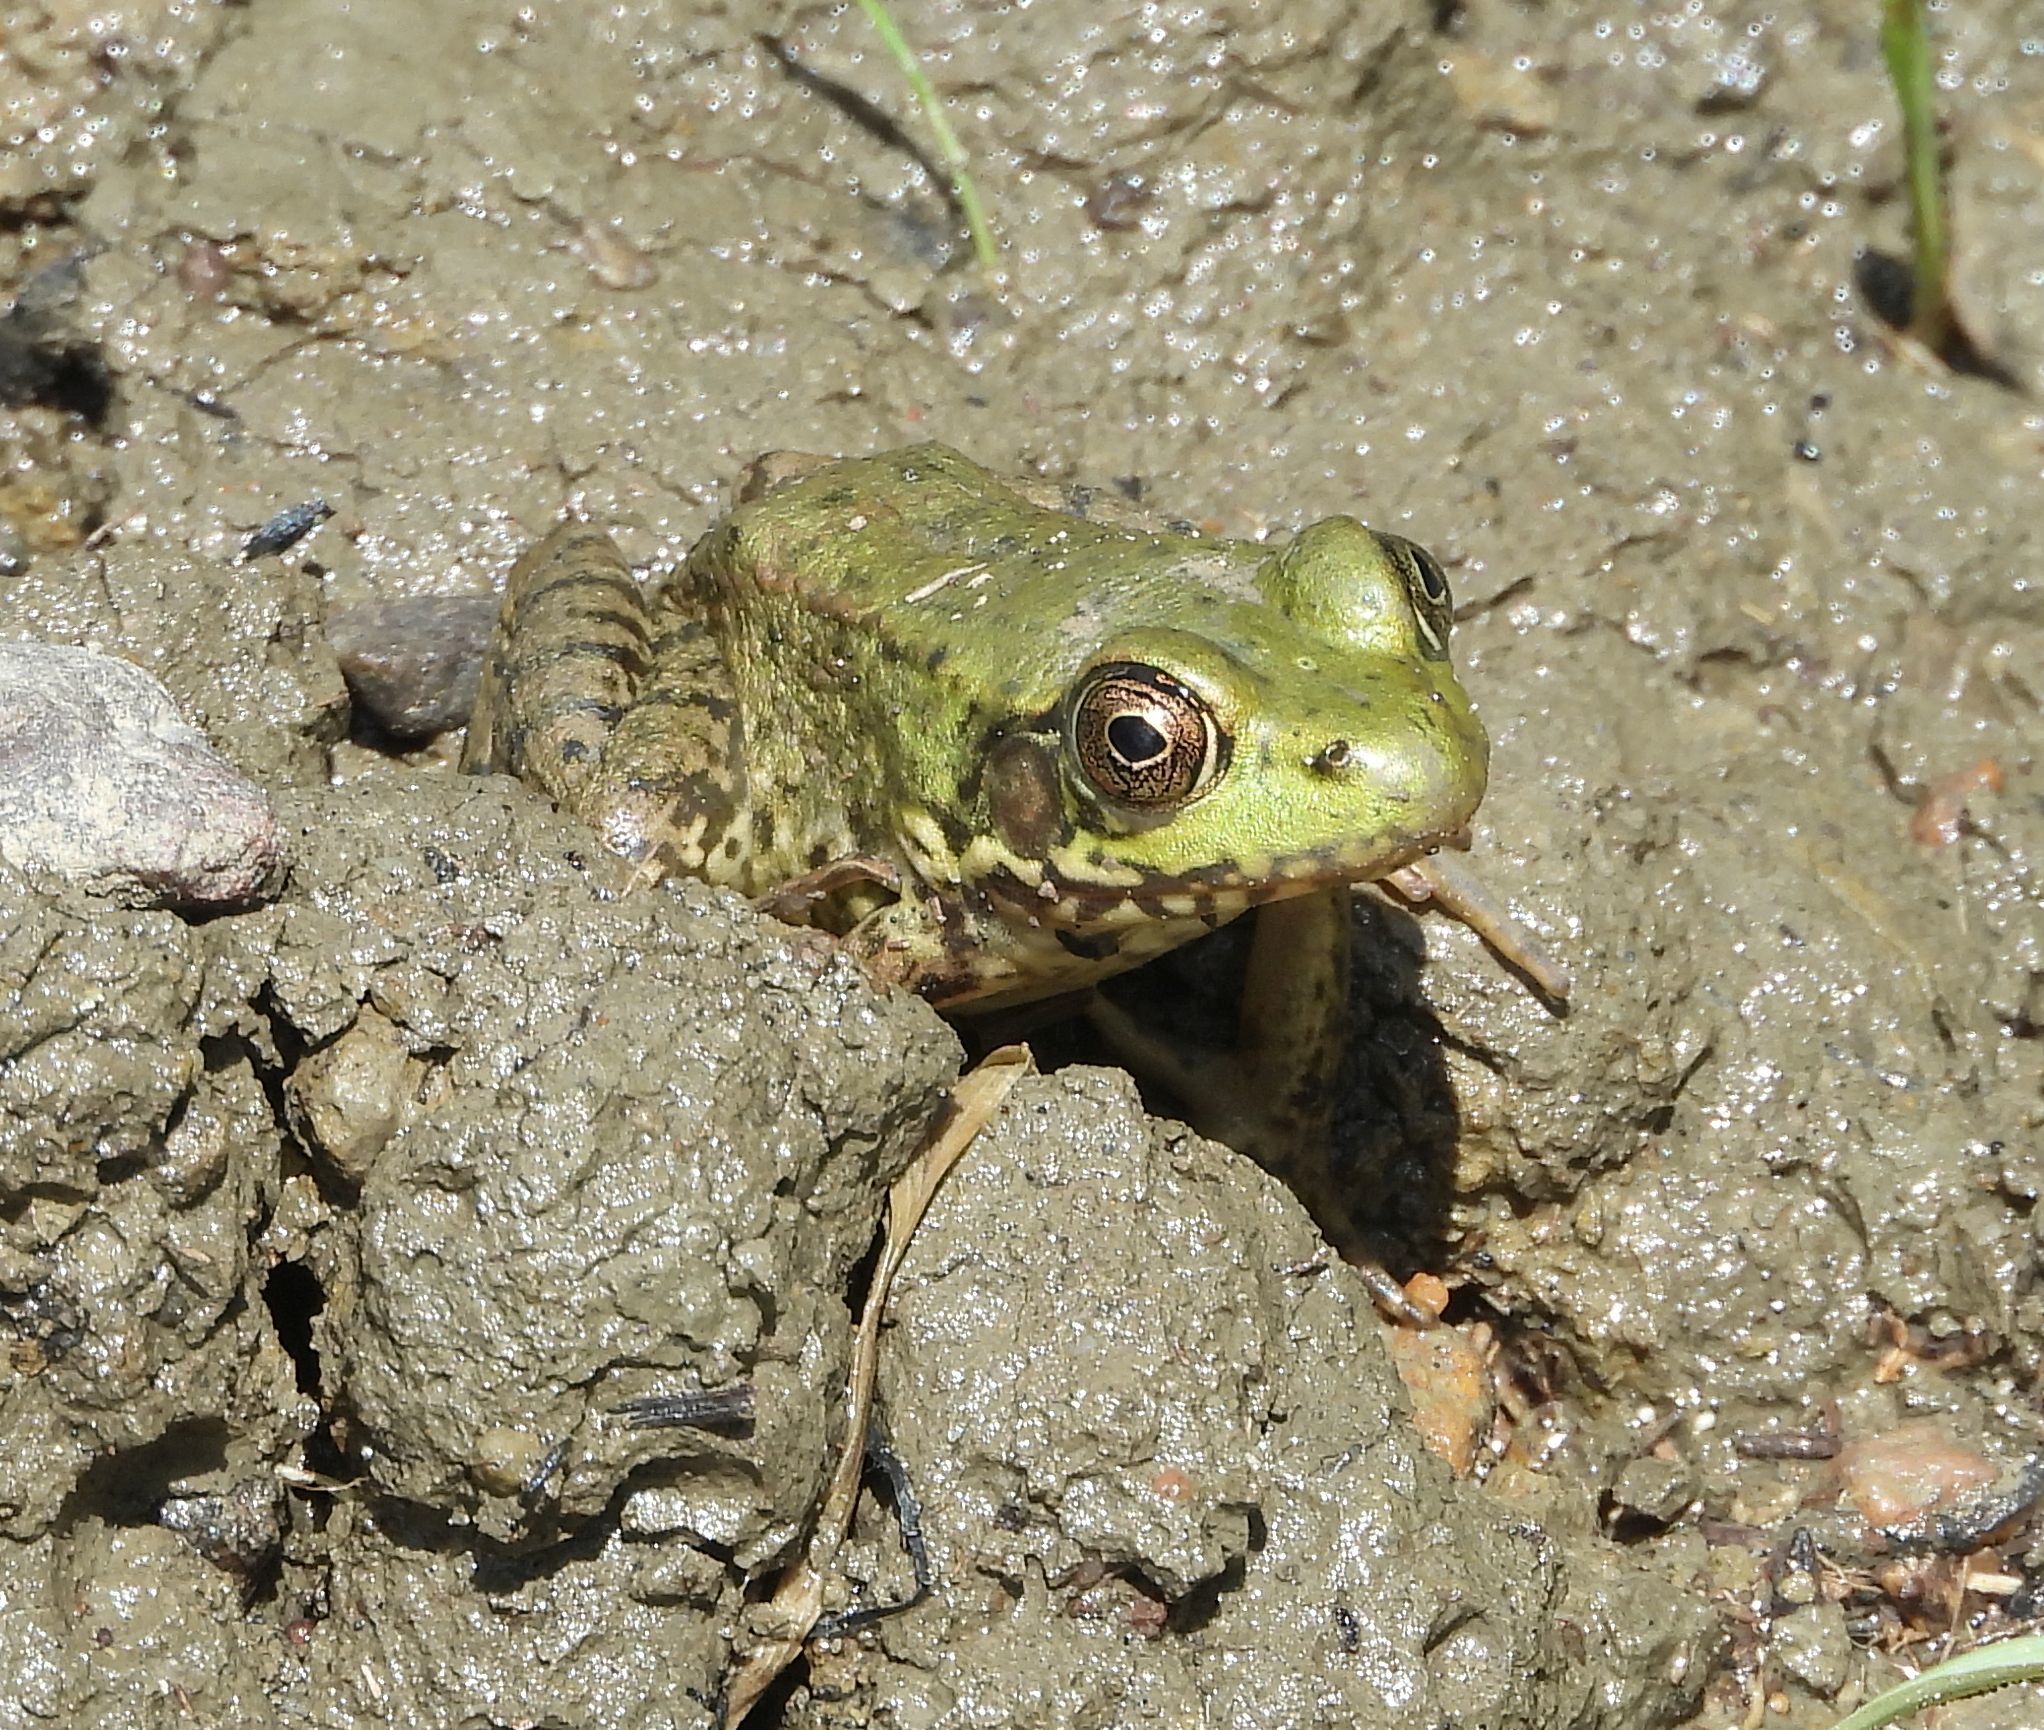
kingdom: Animalia
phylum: Chordata
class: Amphibia
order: Anura
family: Ranidae
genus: Lithobates
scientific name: Lithobates clamitans
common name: Green frog
